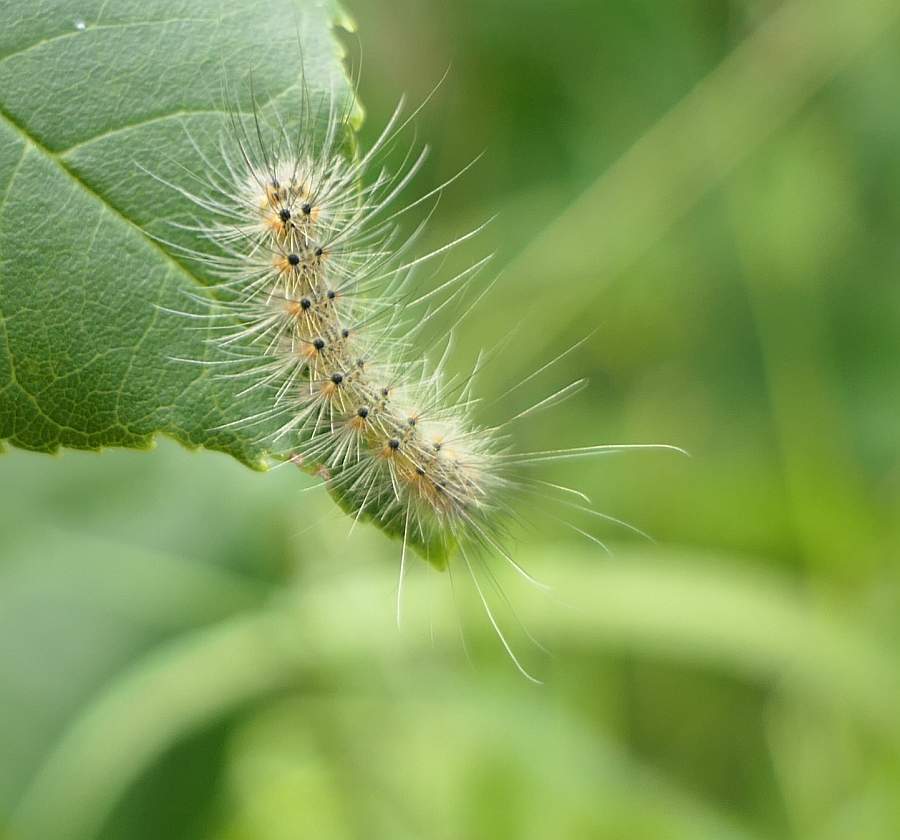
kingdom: Animalia
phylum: Arthropoda
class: Insecta
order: Lepidoptera
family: Erebidae
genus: Hyphantria
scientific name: Hyphantria cunea
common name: American white moth
